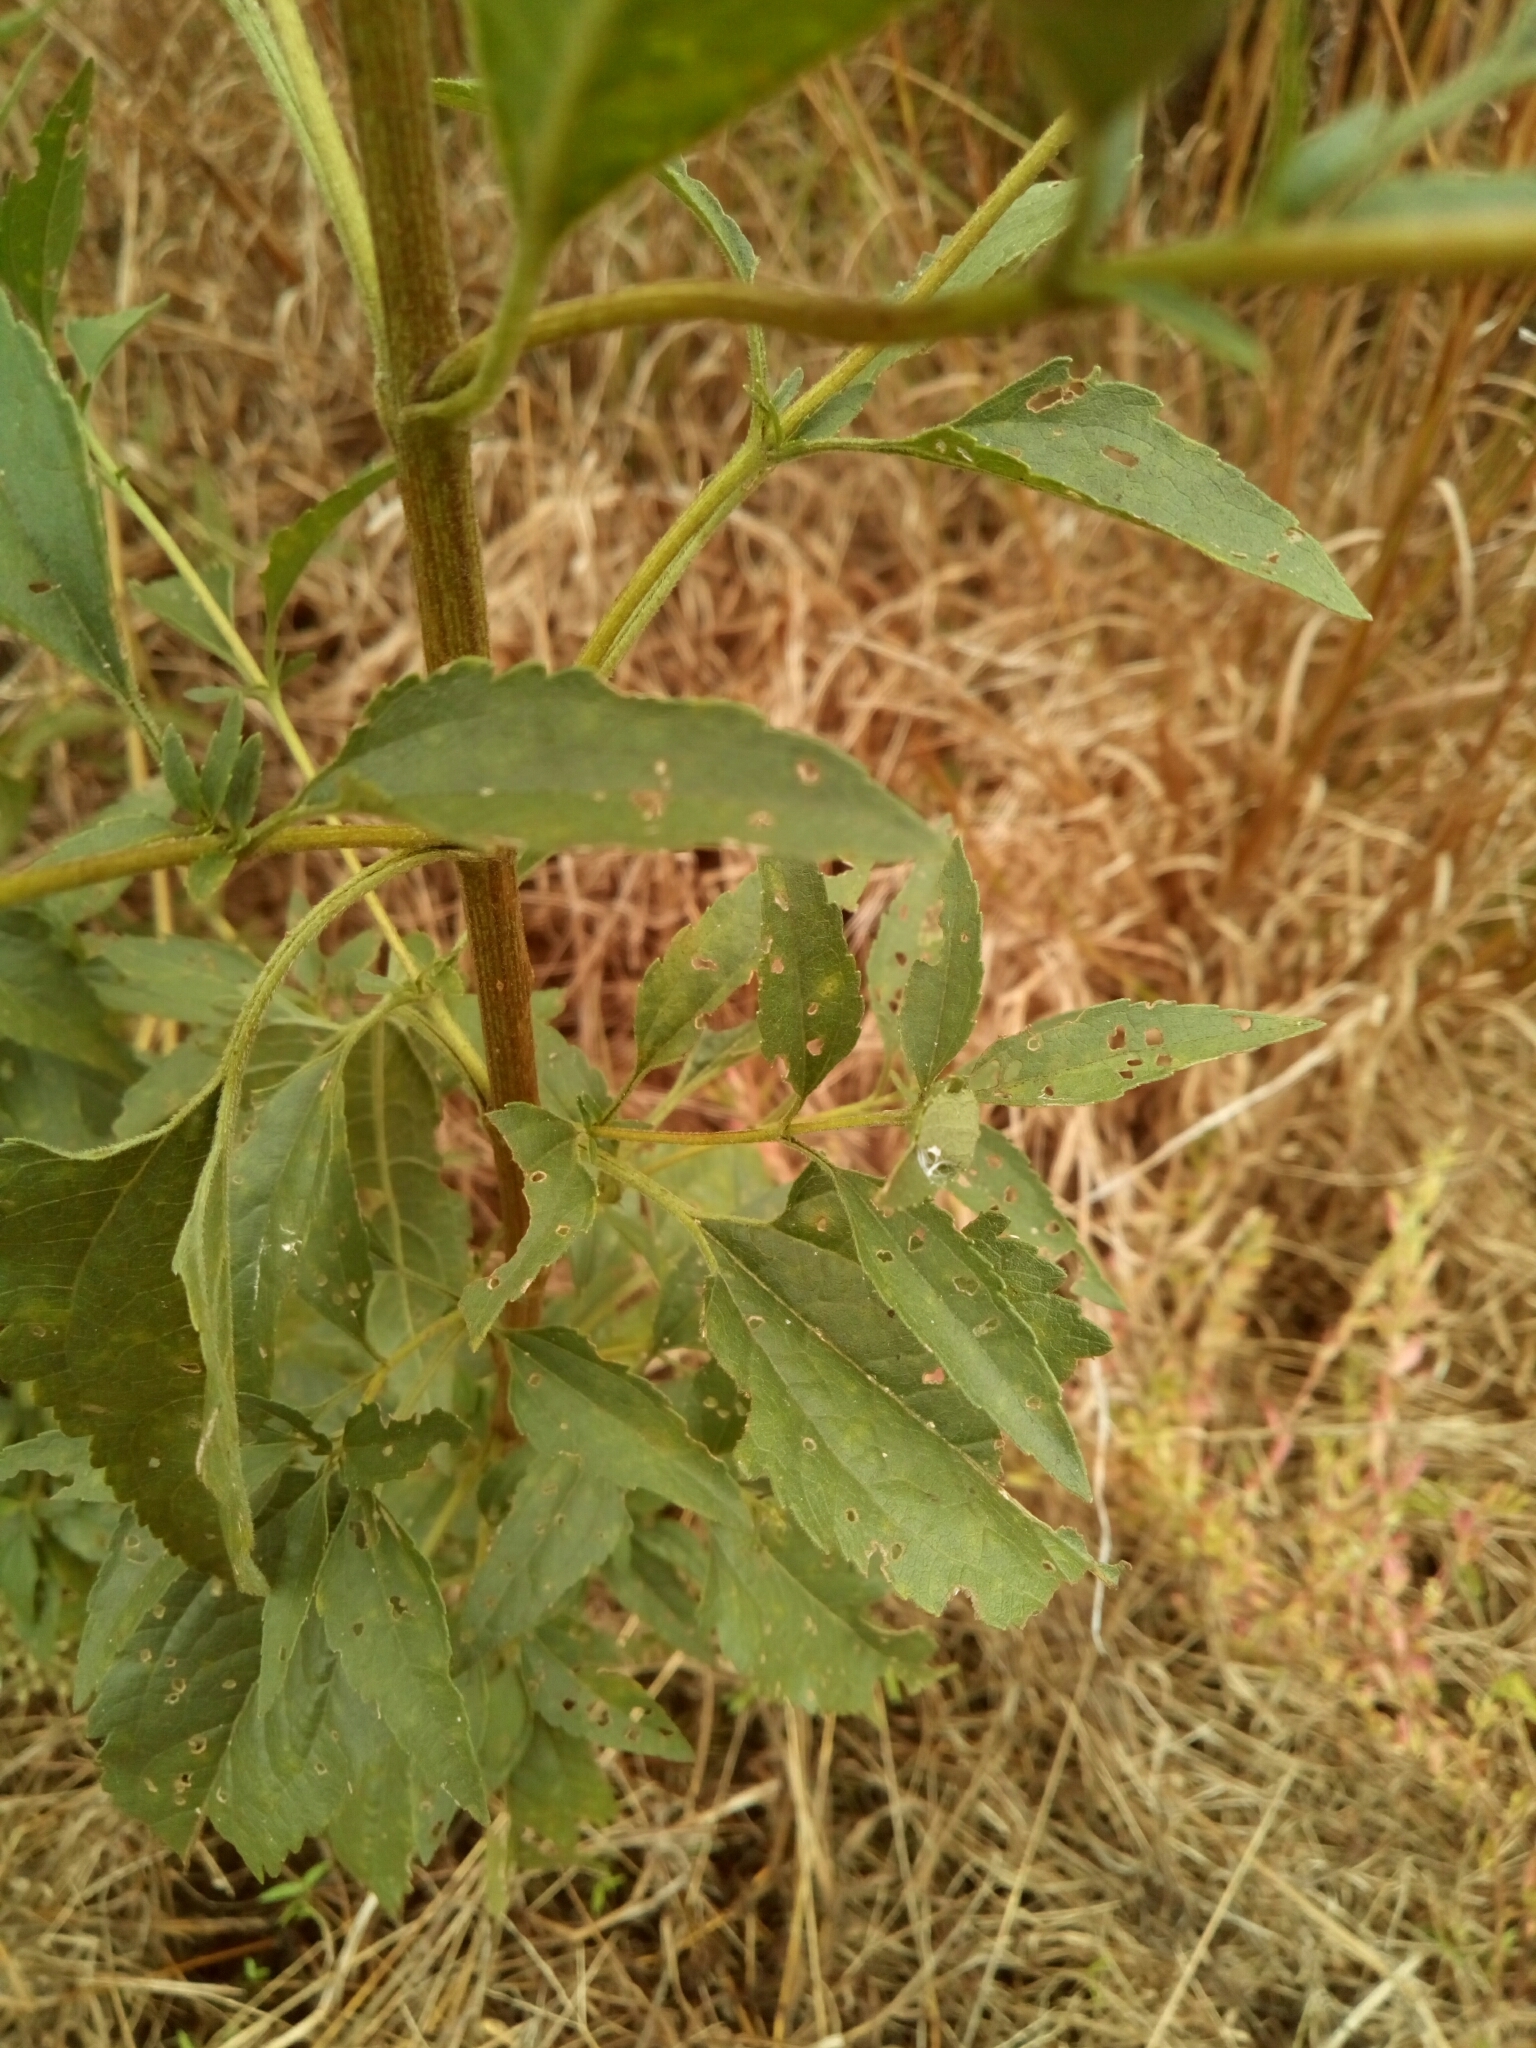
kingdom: Plantae
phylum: Tracheophyta
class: Magnoliopsida
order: Asterales
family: Asteraceae
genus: Eupatorium
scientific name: Eupatorium serotinum
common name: Late boneset
